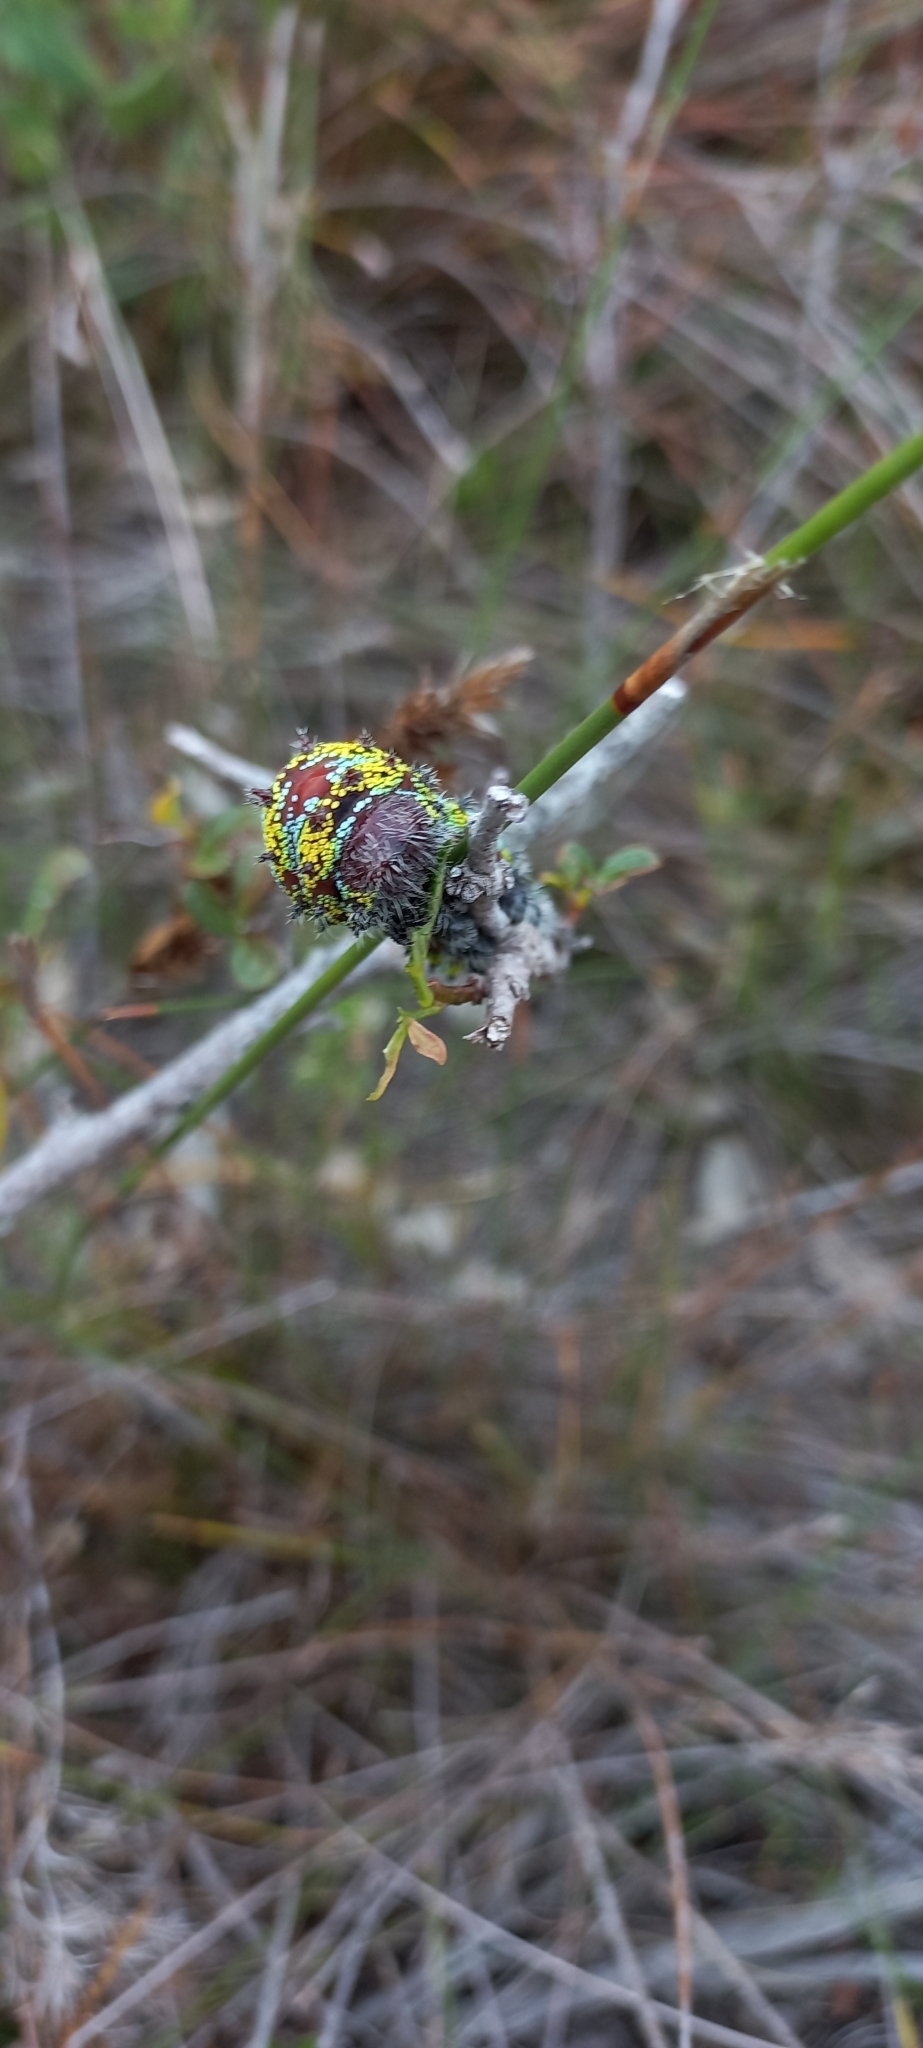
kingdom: Animalia
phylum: Arthropoda
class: Insecta
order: Lepidoptera
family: Saturniidae
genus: Nudaurelia
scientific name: Nudaurelia cytherea
